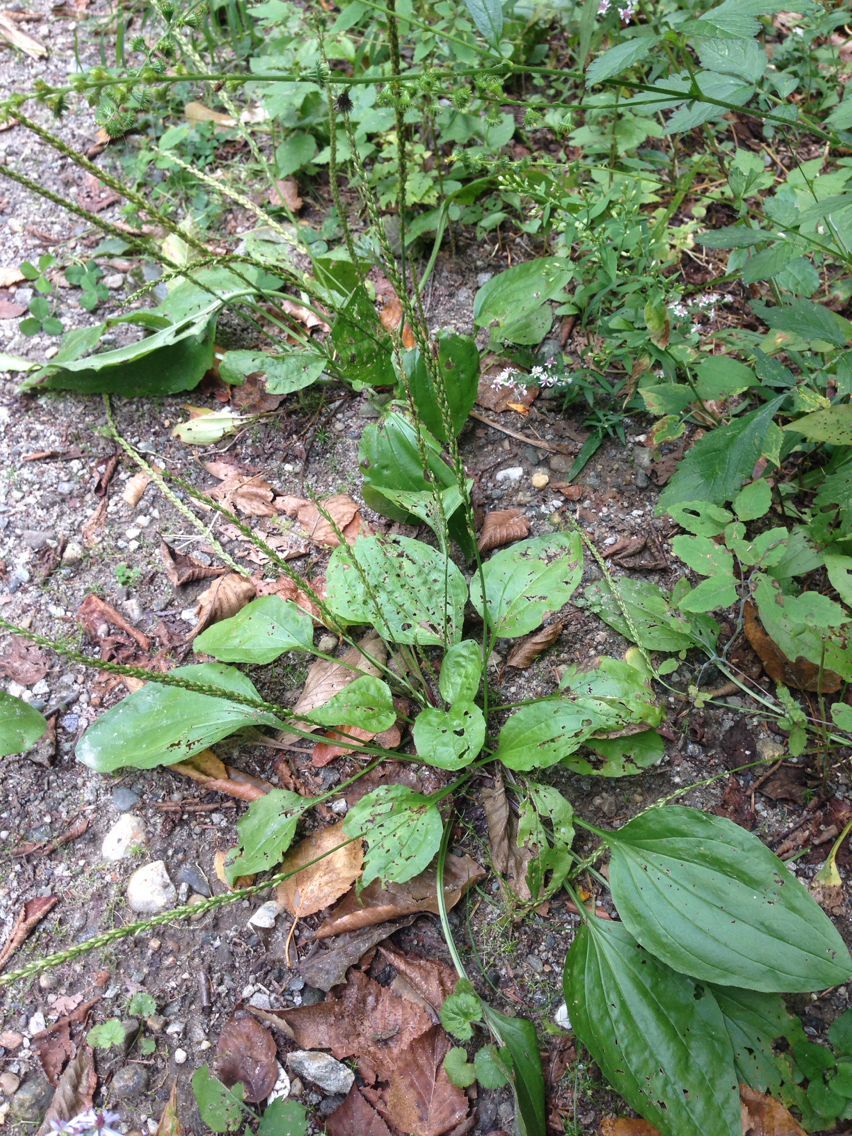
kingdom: Plantae
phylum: Tracheophyta
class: Magnoliopsida
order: Lamiales
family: Plantaginaceae
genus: Plantago
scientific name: Plantago major
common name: Common plantain
